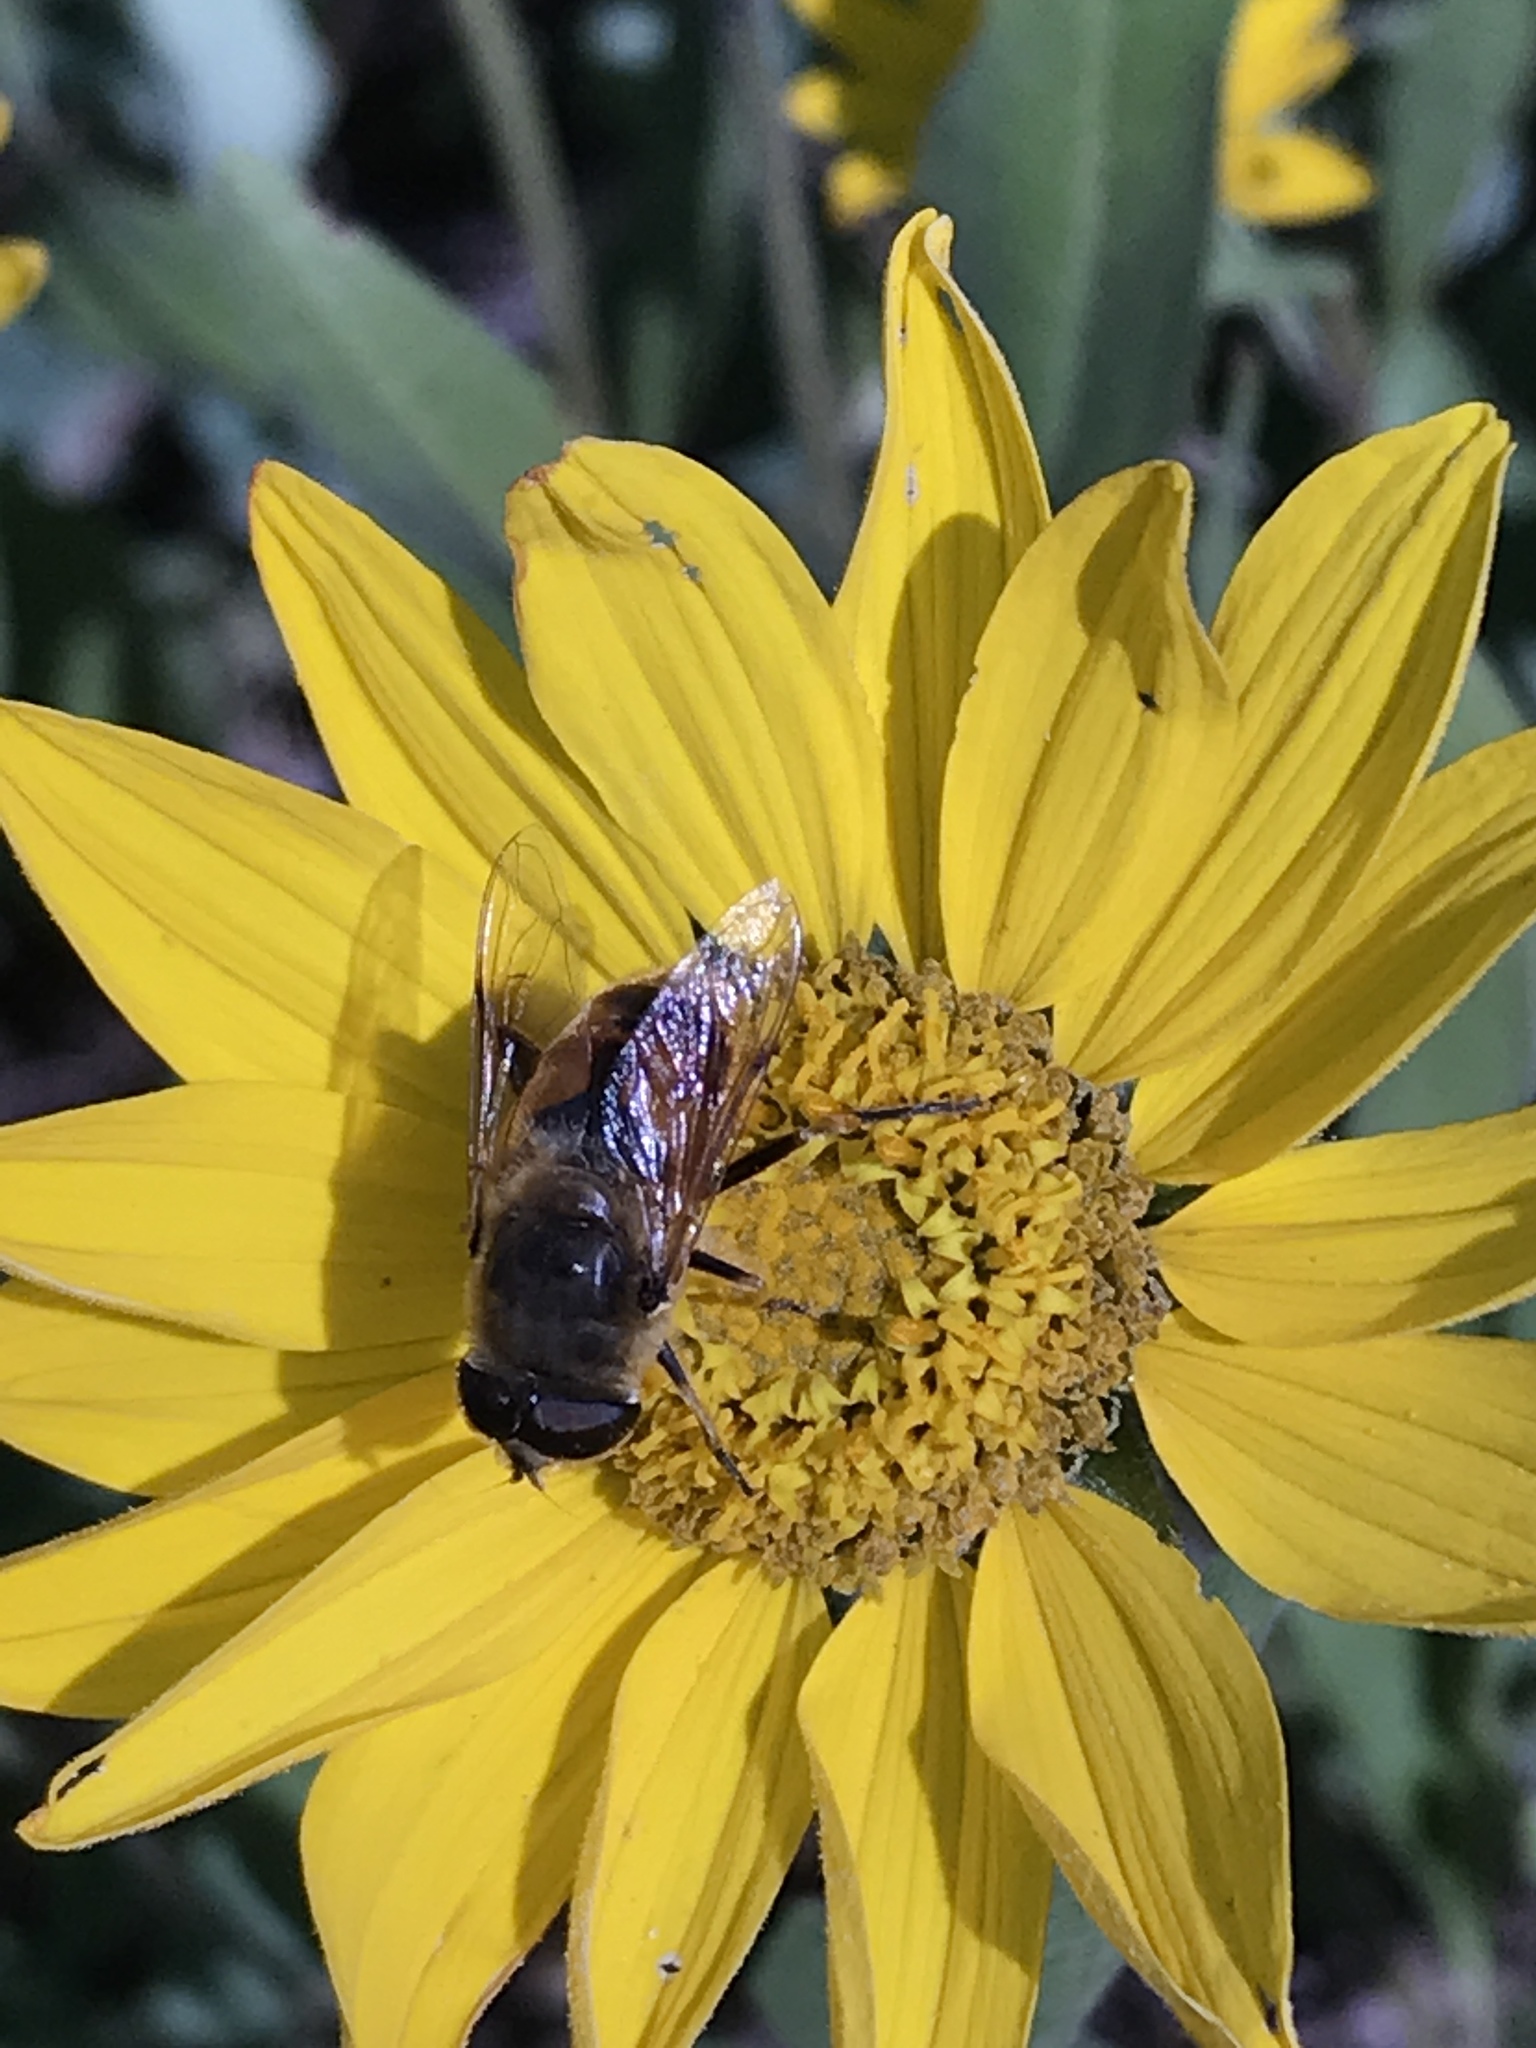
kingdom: Animalia
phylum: Arthropoda
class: Insecta
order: Diptera
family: Syrphidae
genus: Eristalis
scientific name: Eristalis tenax
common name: Drone fly
